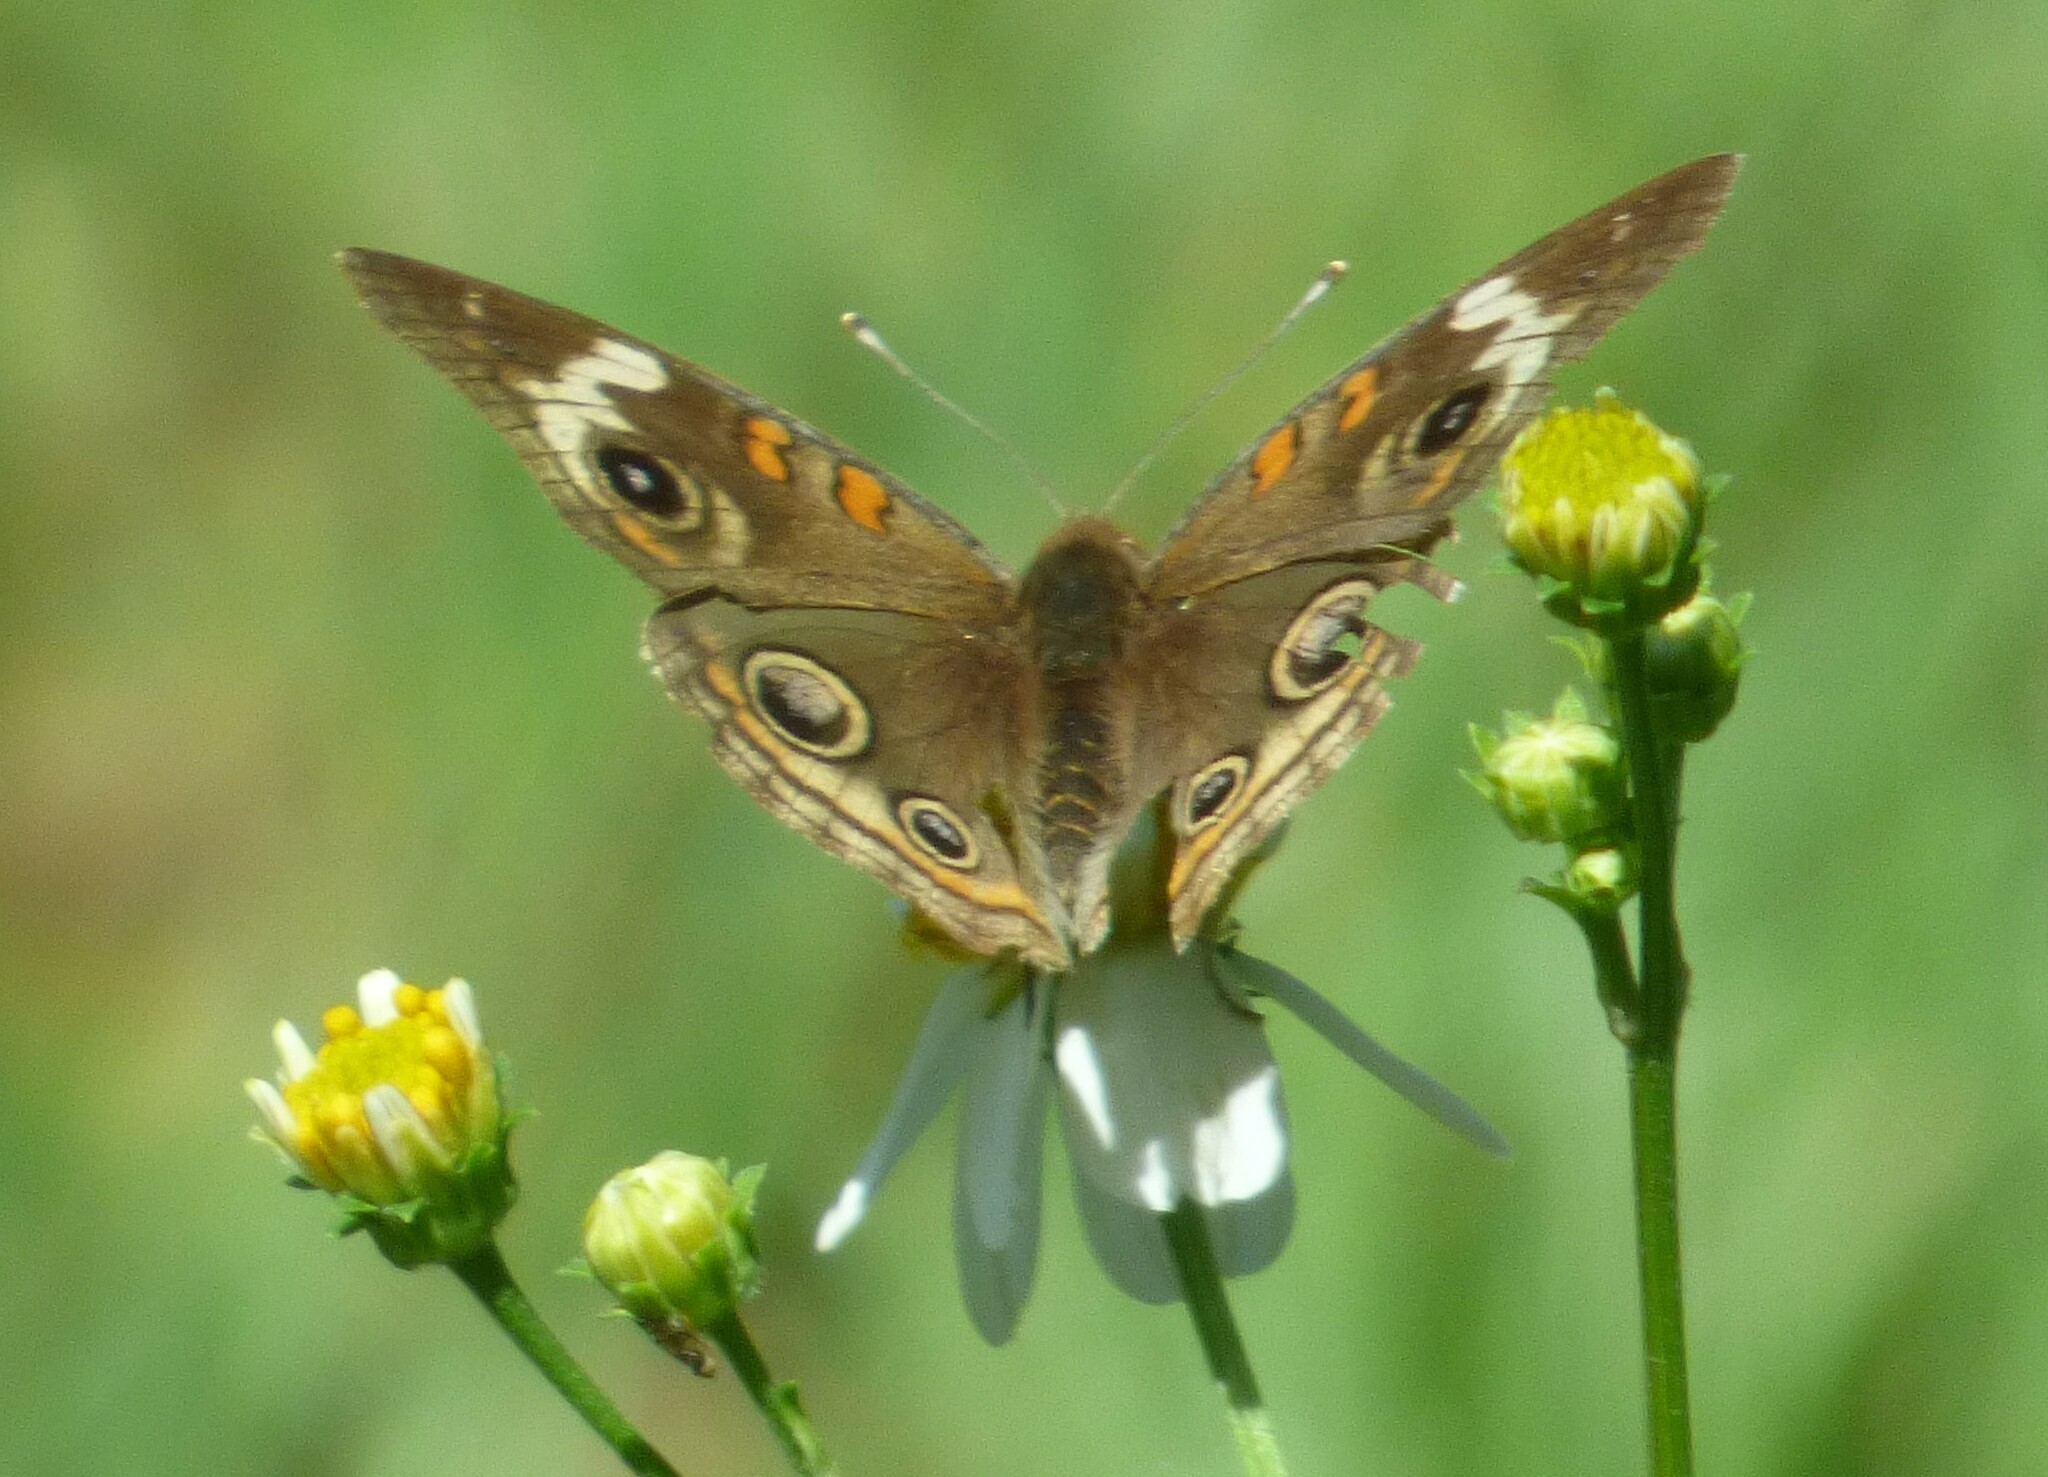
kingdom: Animalia
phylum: Arthropoda
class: Insecta
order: Lepidoptera
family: Nymphalidae
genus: Junonia
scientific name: Junonia coenia
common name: Common buckeye
